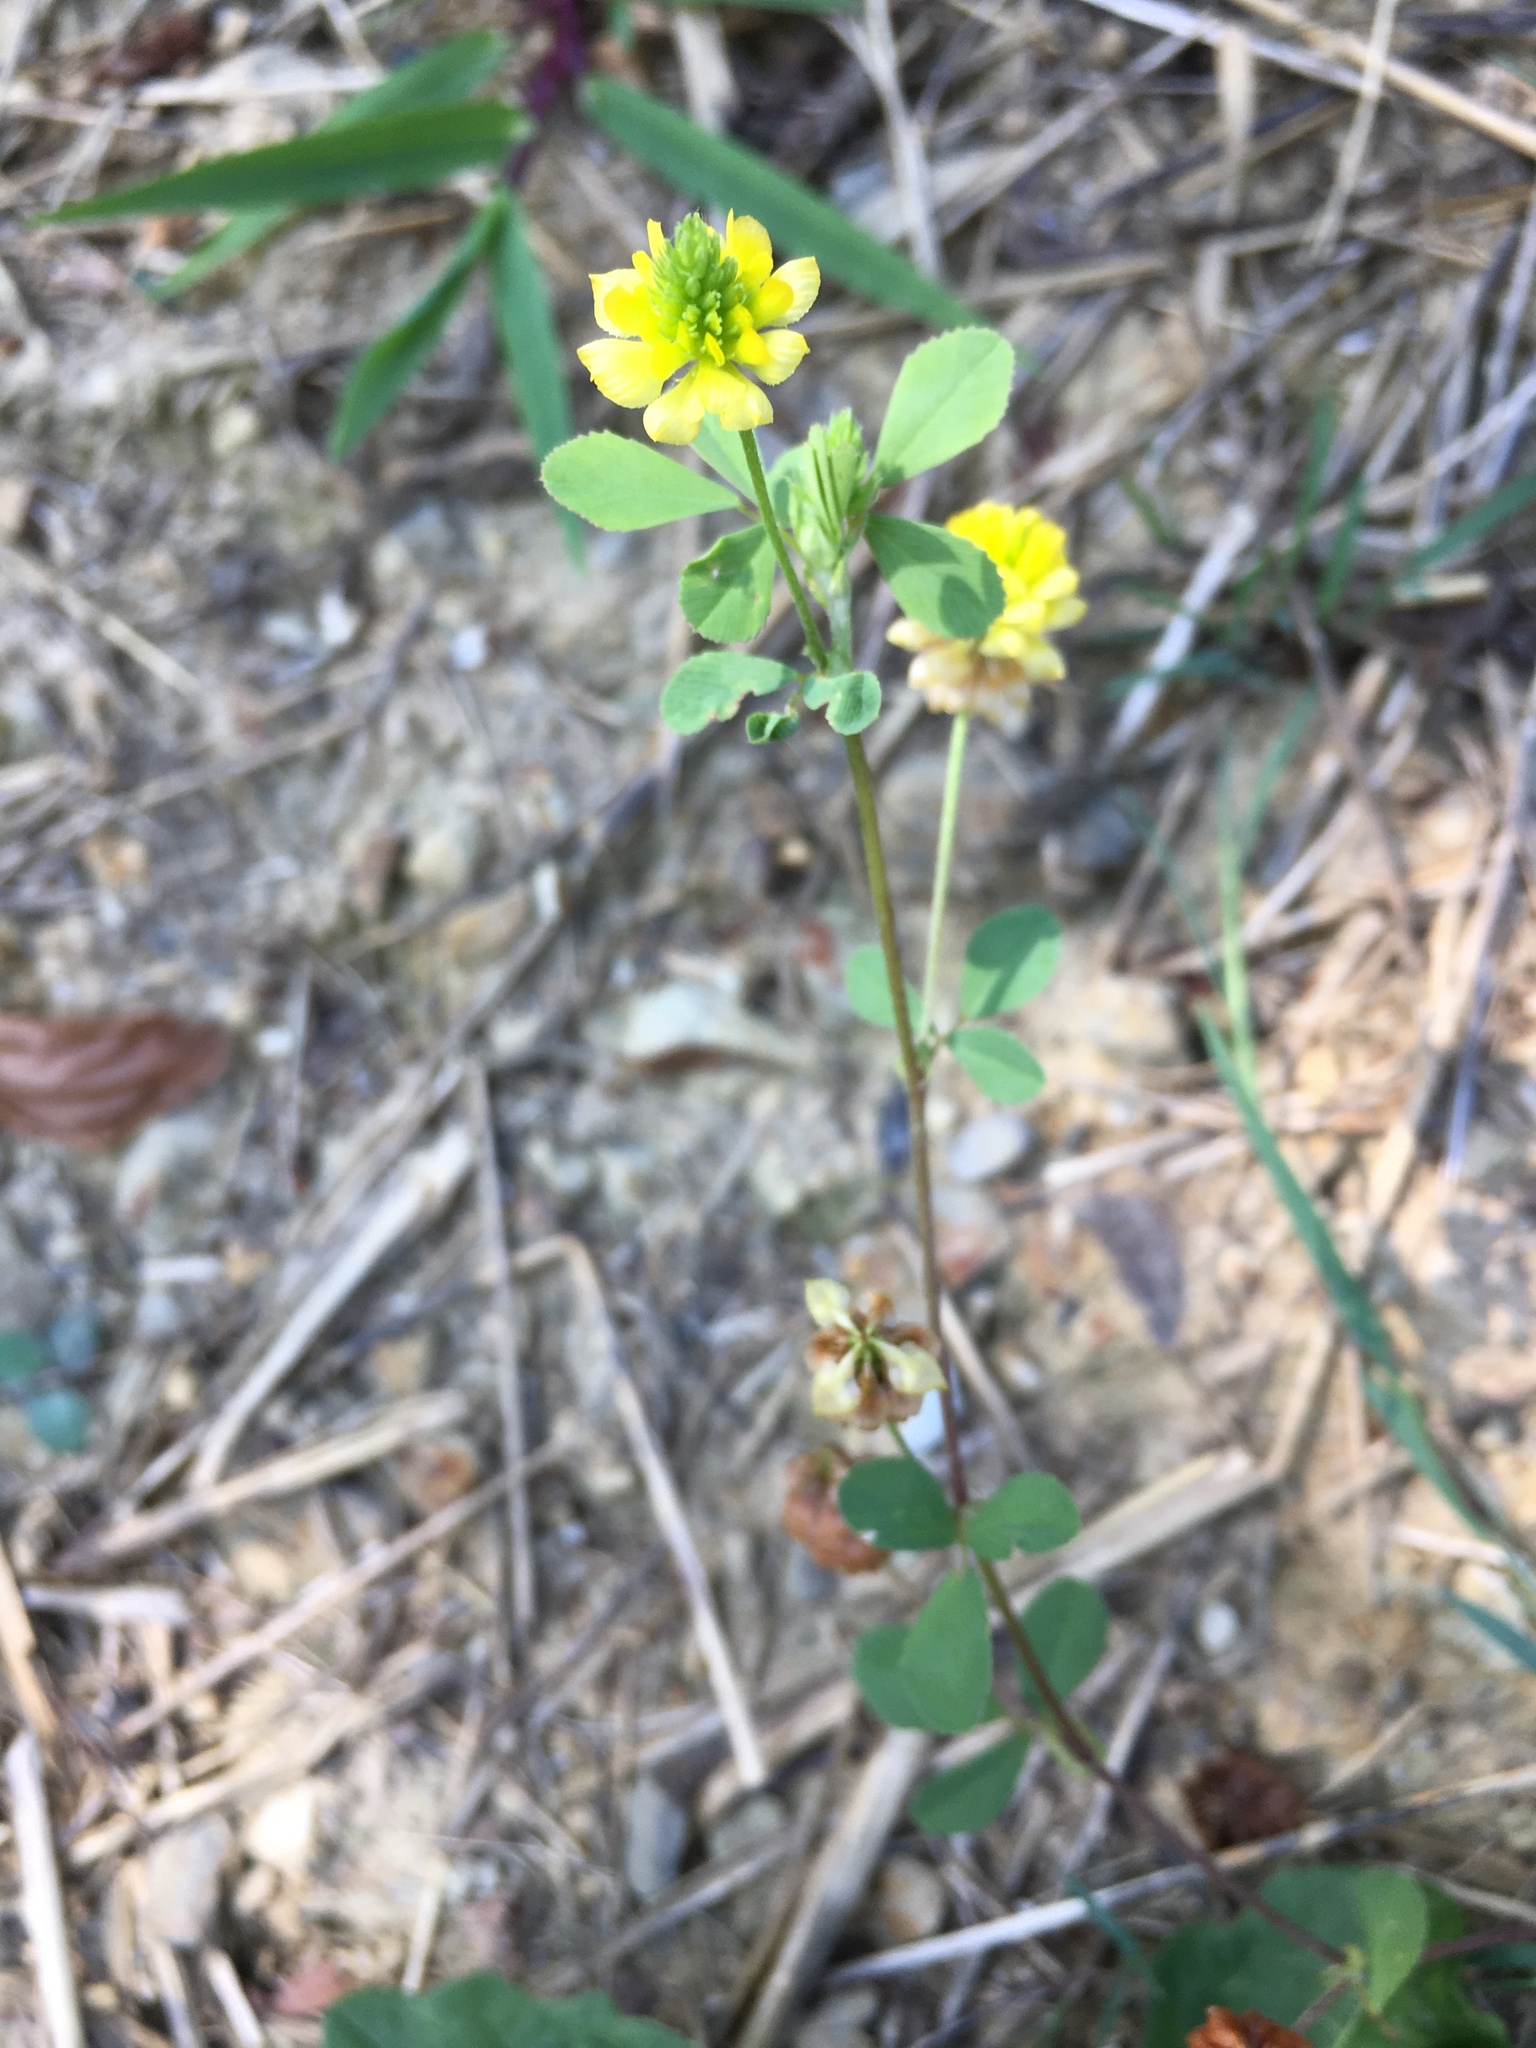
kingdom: Plantae
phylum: Tracheophyta
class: Magnoliopsida
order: Fabales
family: Fabaceae
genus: Trifolium
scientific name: Trifolium campestre
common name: Field clover
